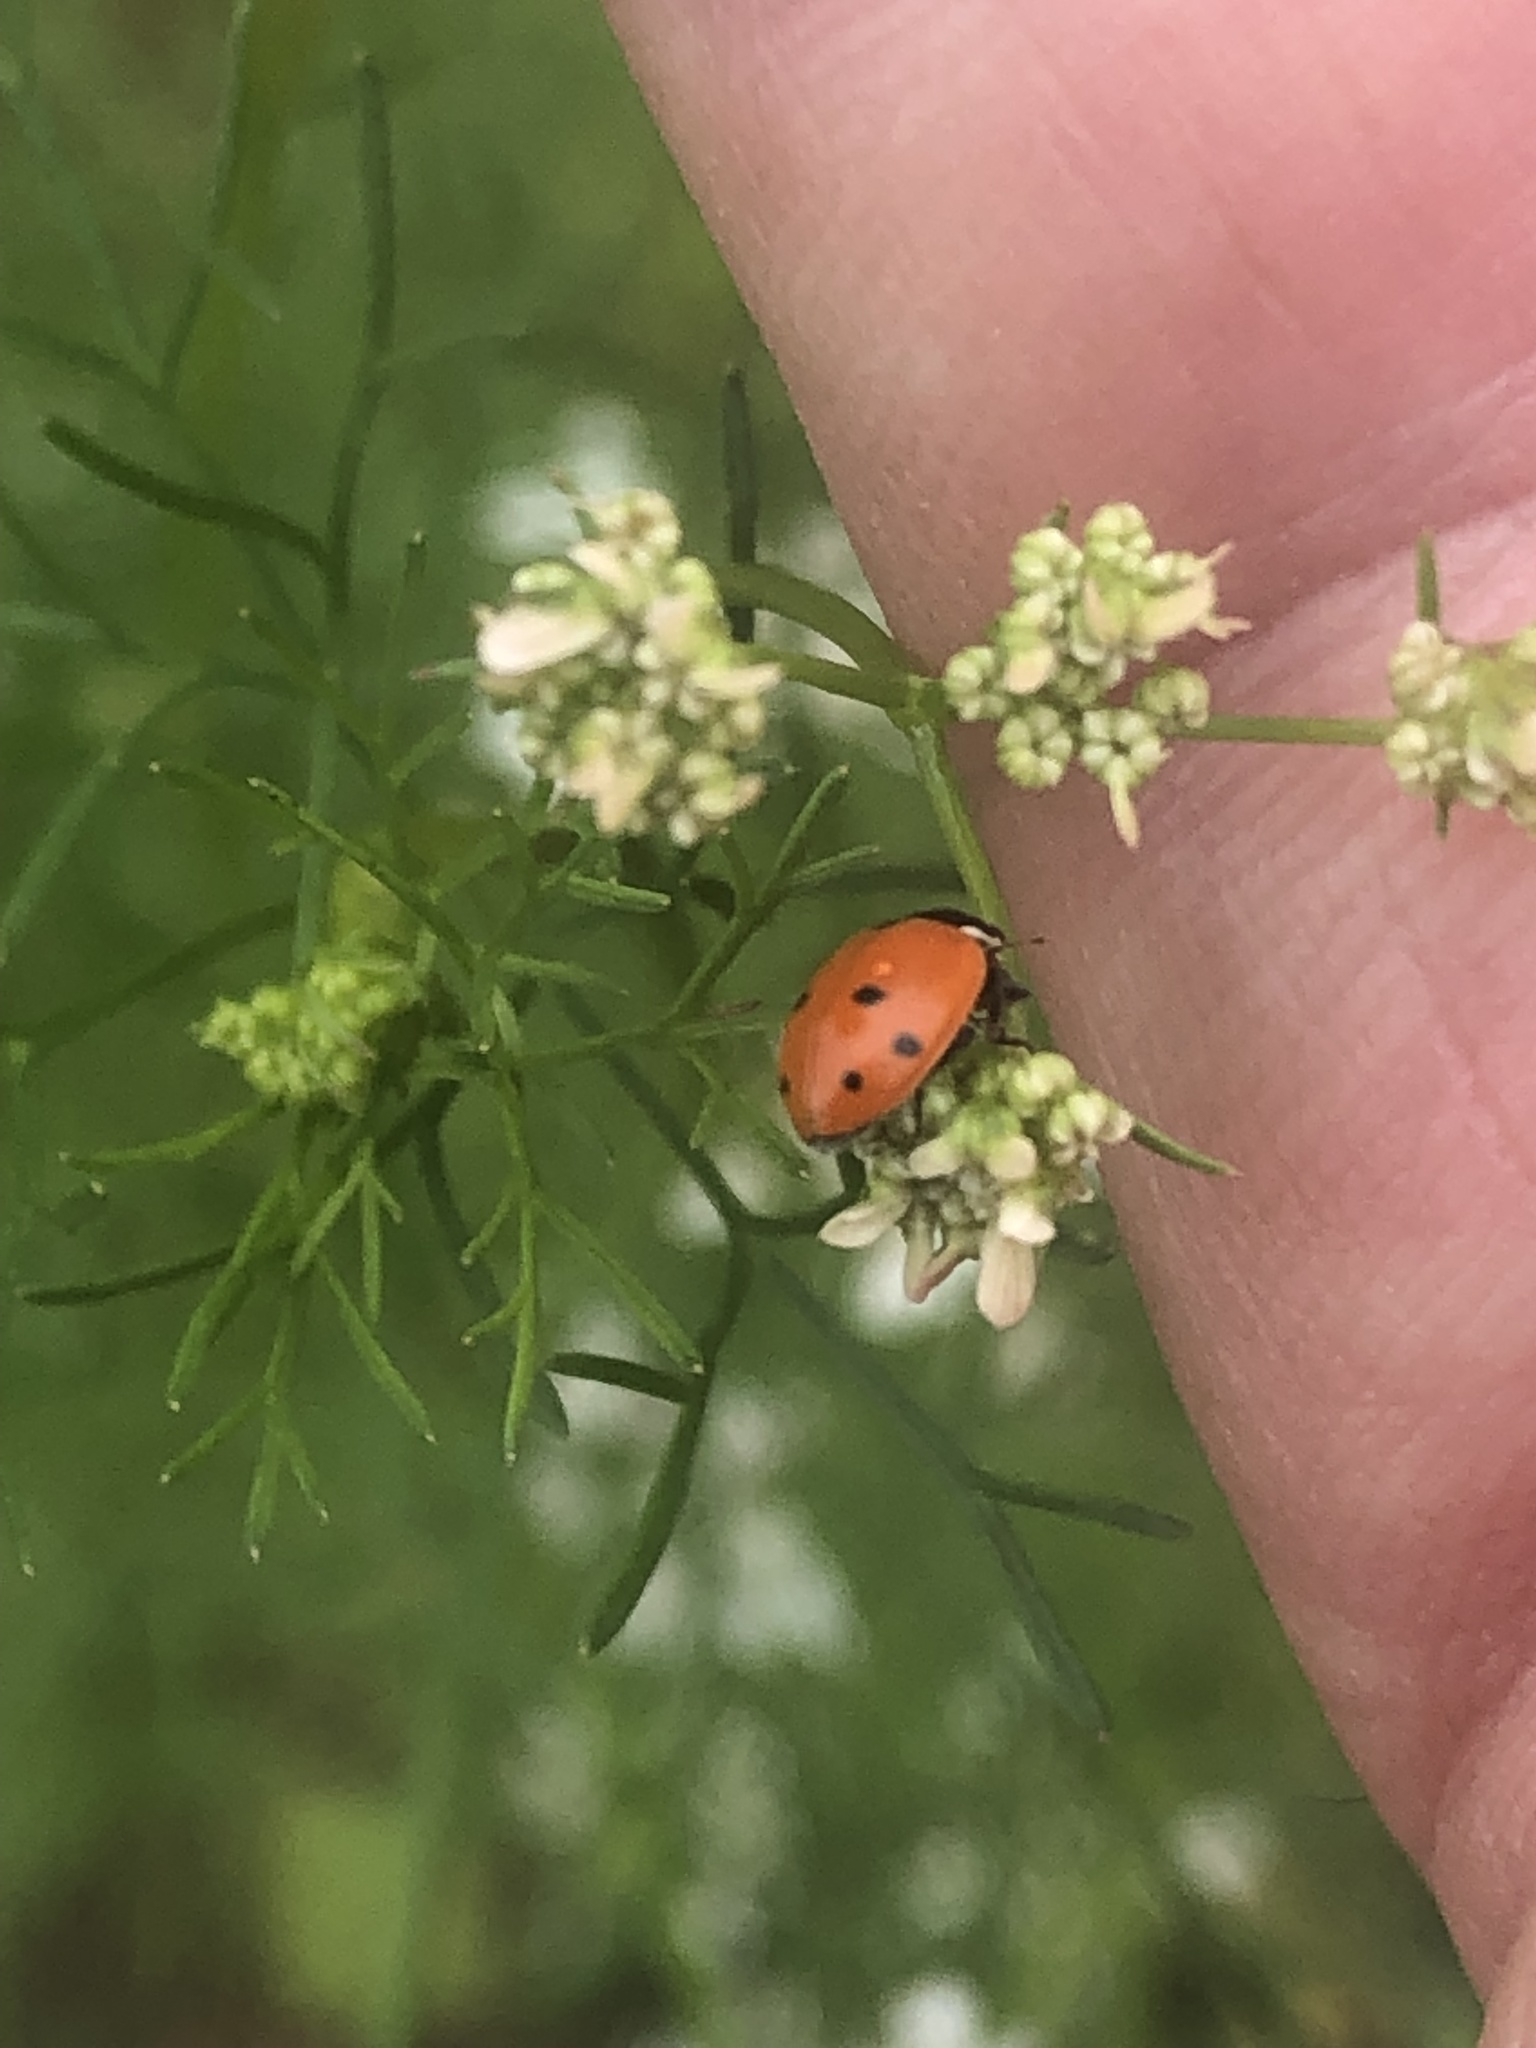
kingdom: Animalia
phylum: Arthropoda
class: Insecta
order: Coleoptera
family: Coccinellidae
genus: Hippodamia
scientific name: Hippodamia variegata
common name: Ladybird beetle
